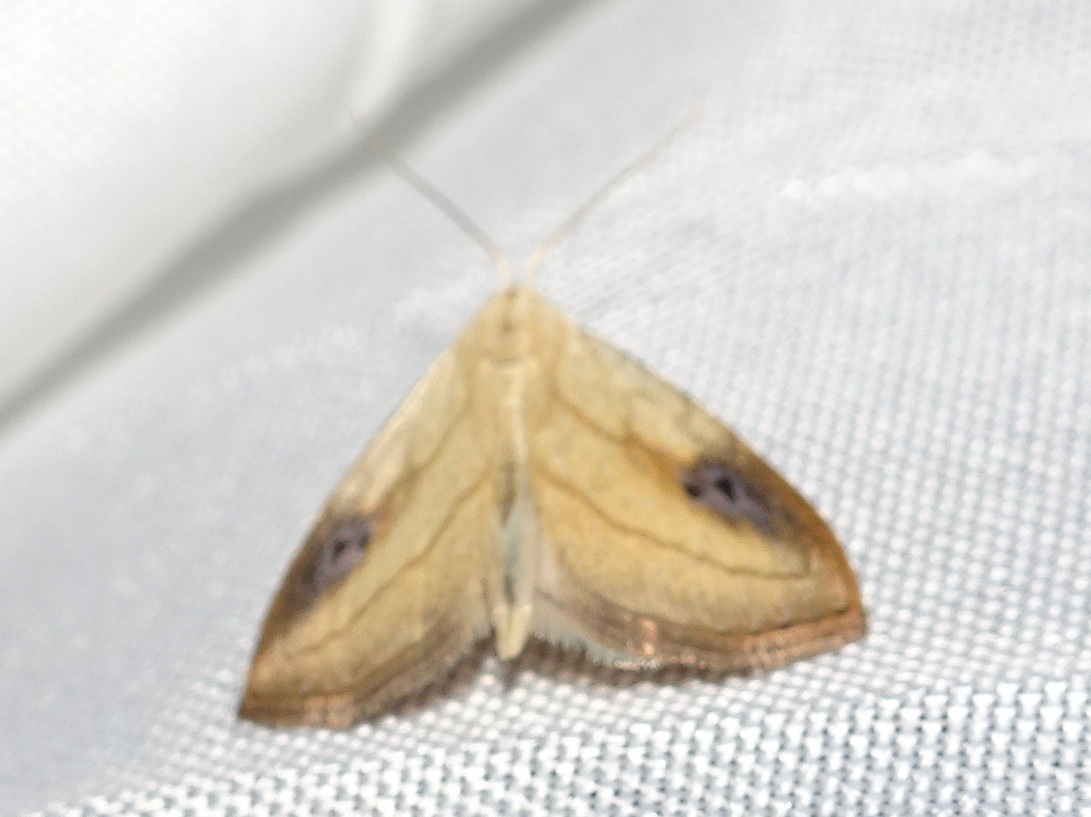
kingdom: Animalia
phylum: Arthropoda
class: Insecta
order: Lepidoptera
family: Erebidae
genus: Rivula
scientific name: Rivula propinqualis
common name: Spotted grass moth
